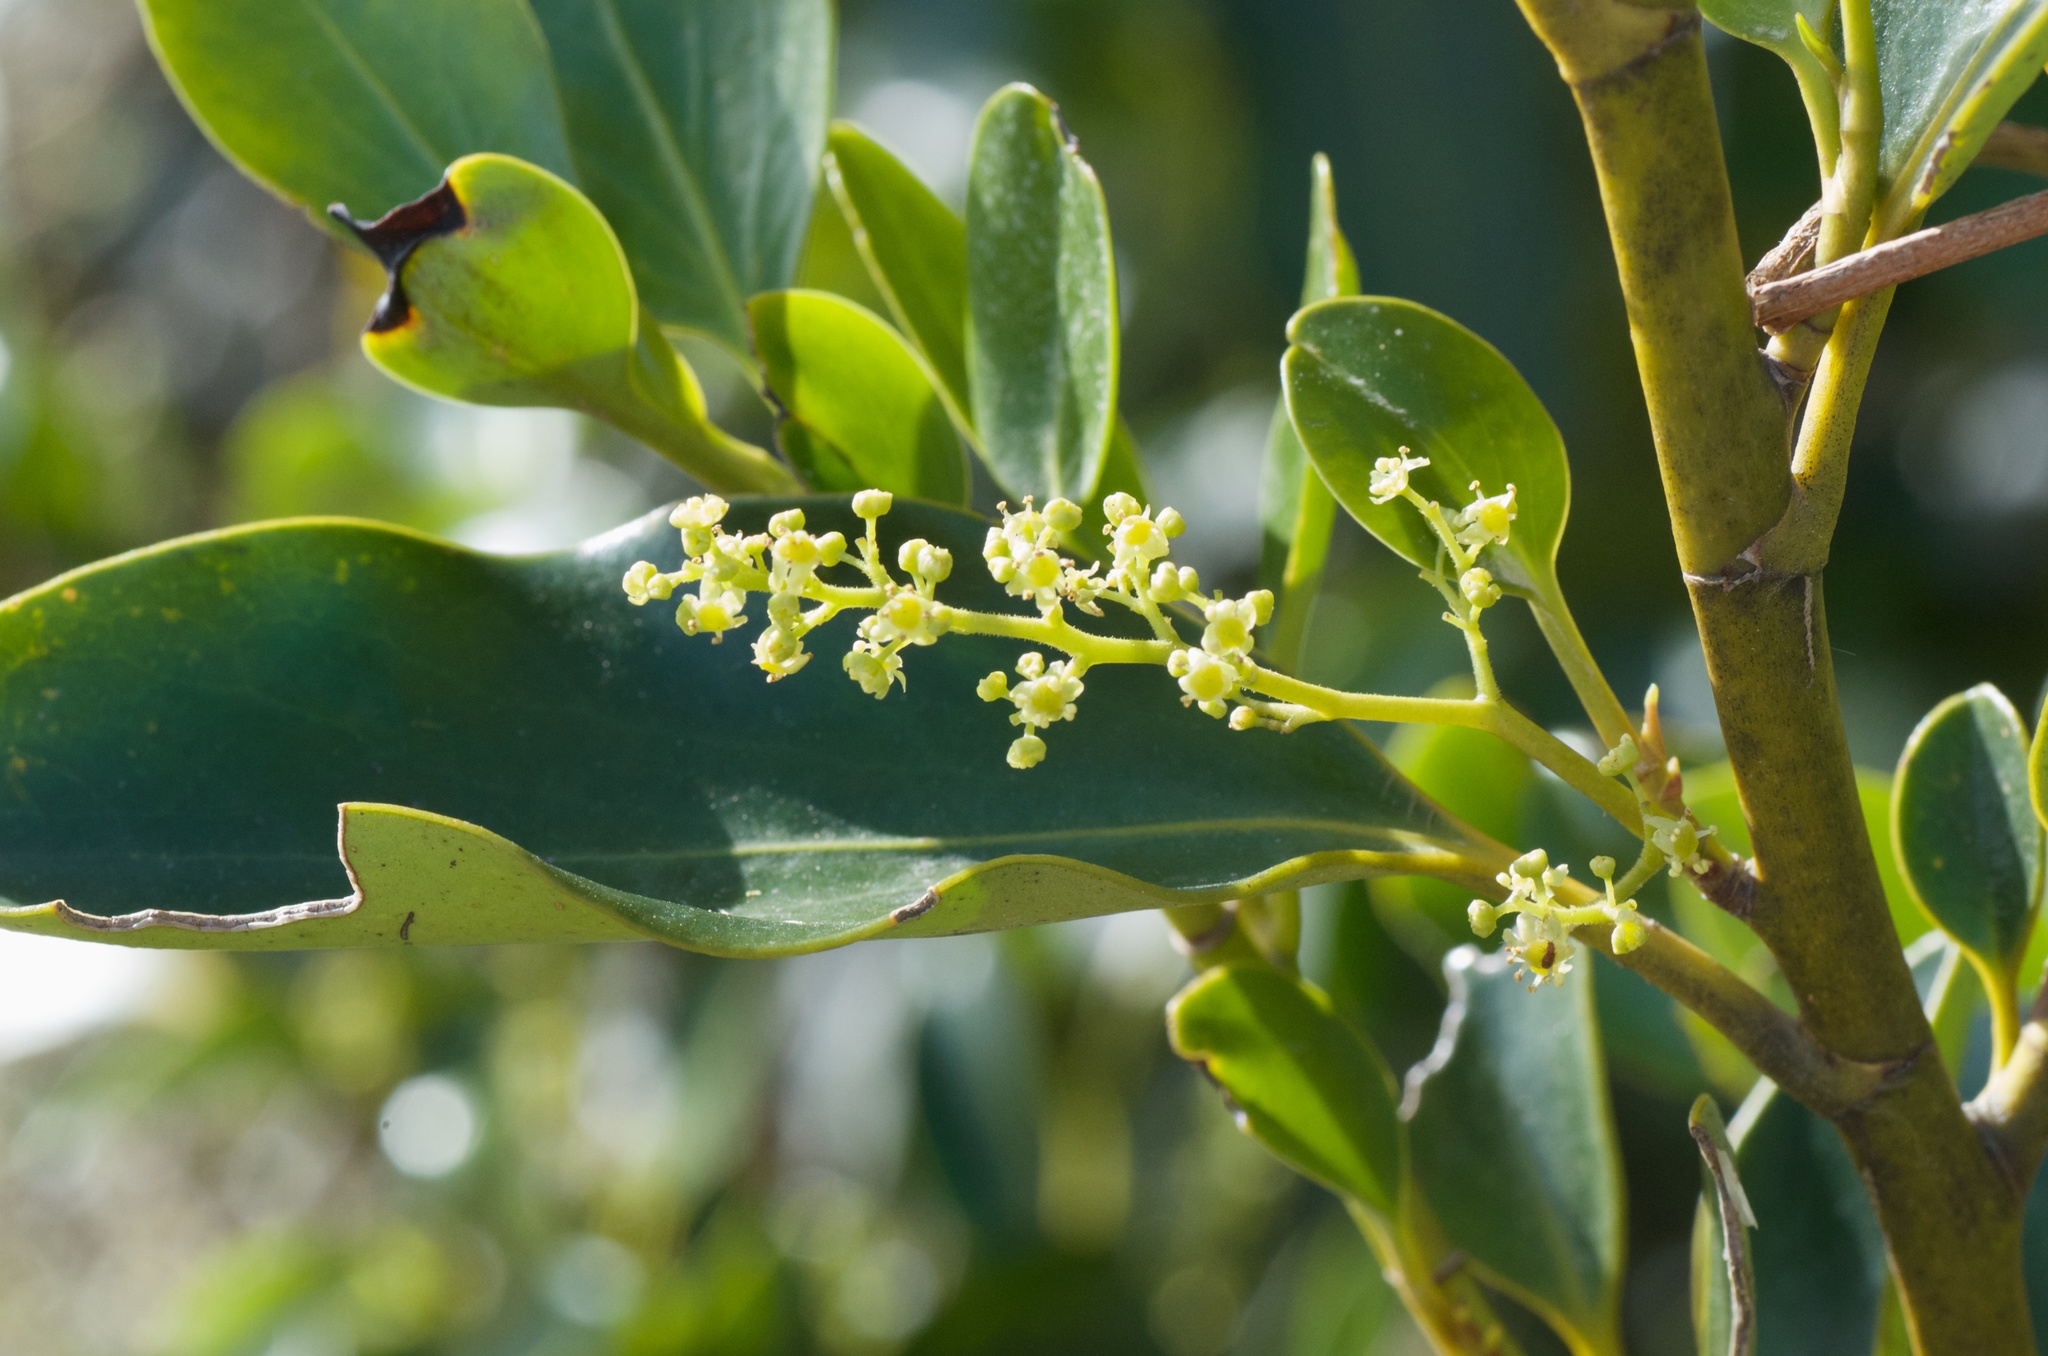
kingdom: Plantae
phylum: Tracheophyta
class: Magnoliopsida
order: Apiales
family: Griseliniaceae
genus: Griselinia
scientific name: Griselinia littoralis
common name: New zealand broadleaf
